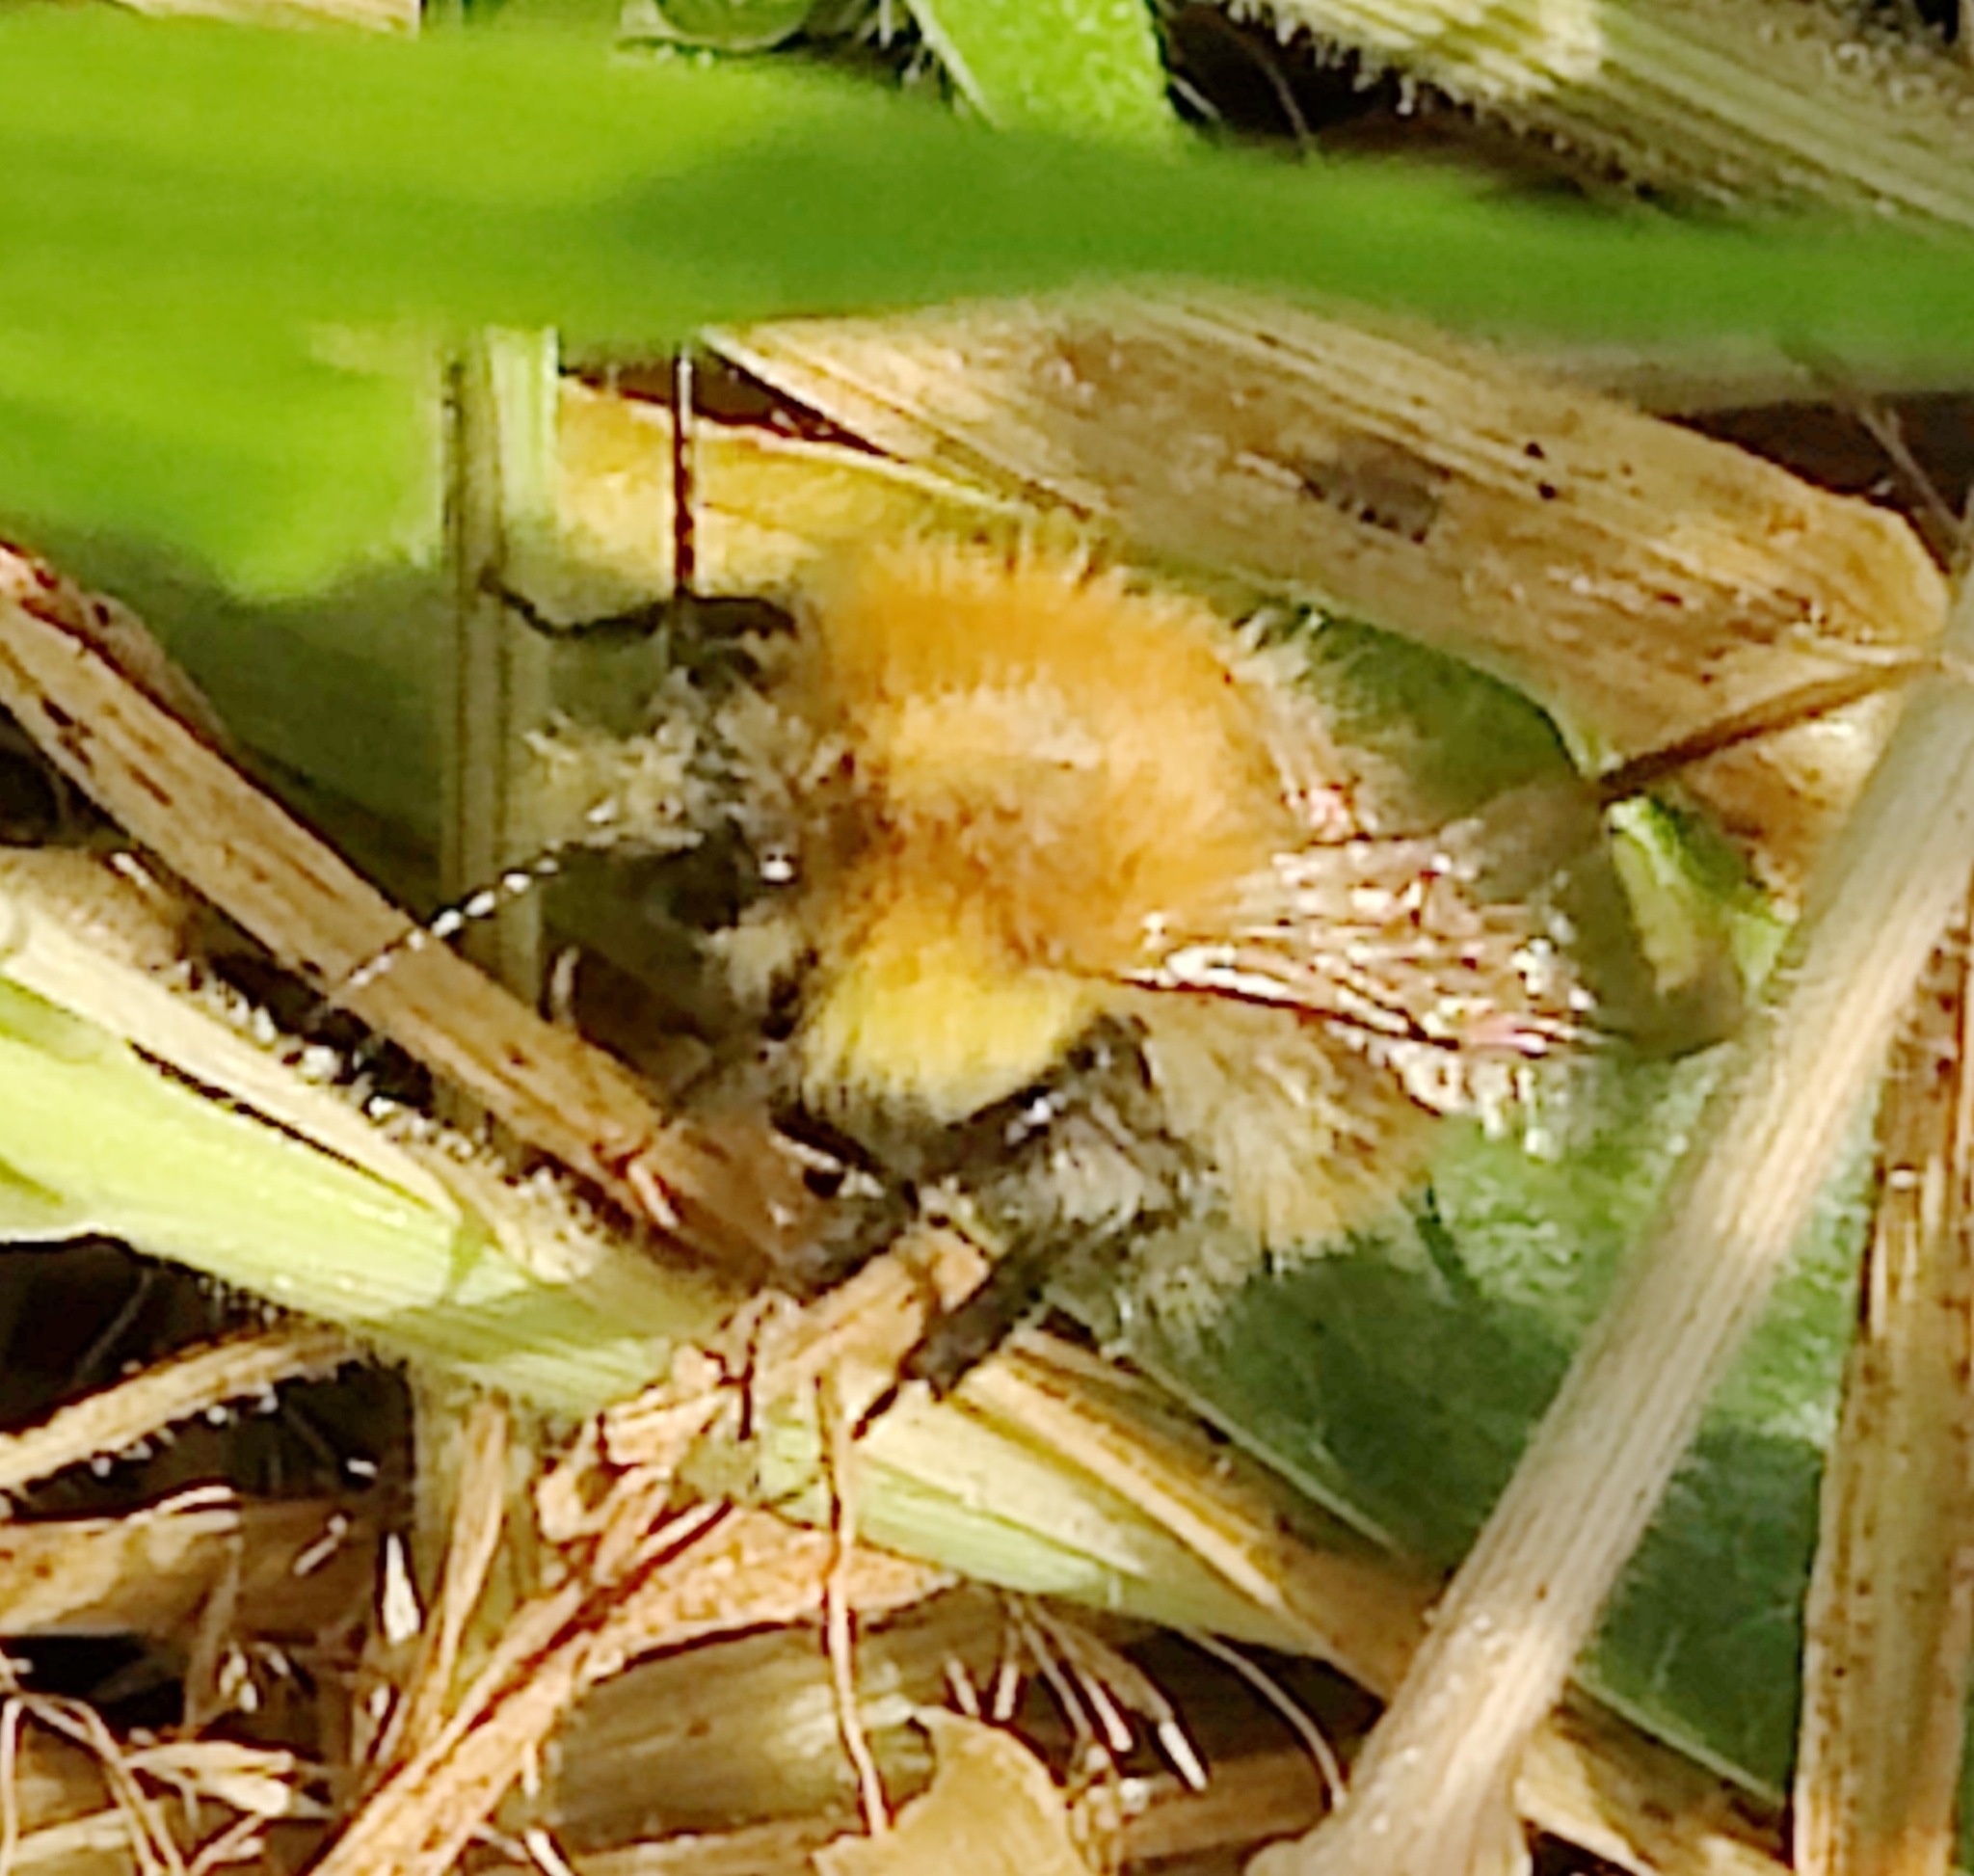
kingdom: Animalia
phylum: Arthropoda
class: Insecta
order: Hymenoptera
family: Apidae
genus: Bombus
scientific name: Bombus pascuorum
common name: Common carder bee
